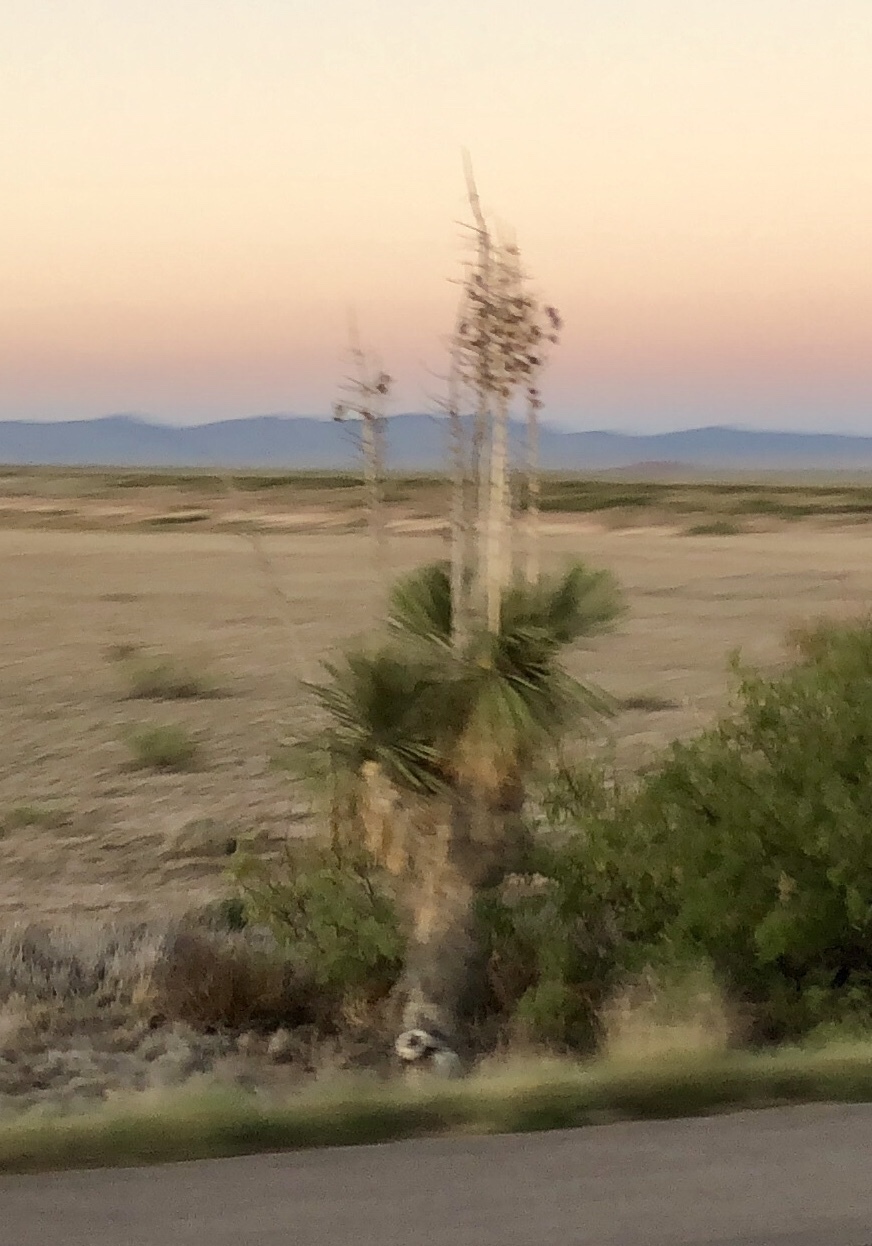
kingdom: Plantae
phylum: Tracheophyta
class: Liliopsida
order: Asparagales
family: Asparagaceae
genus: Yucca
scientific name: Yucca elata
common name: Palmella
